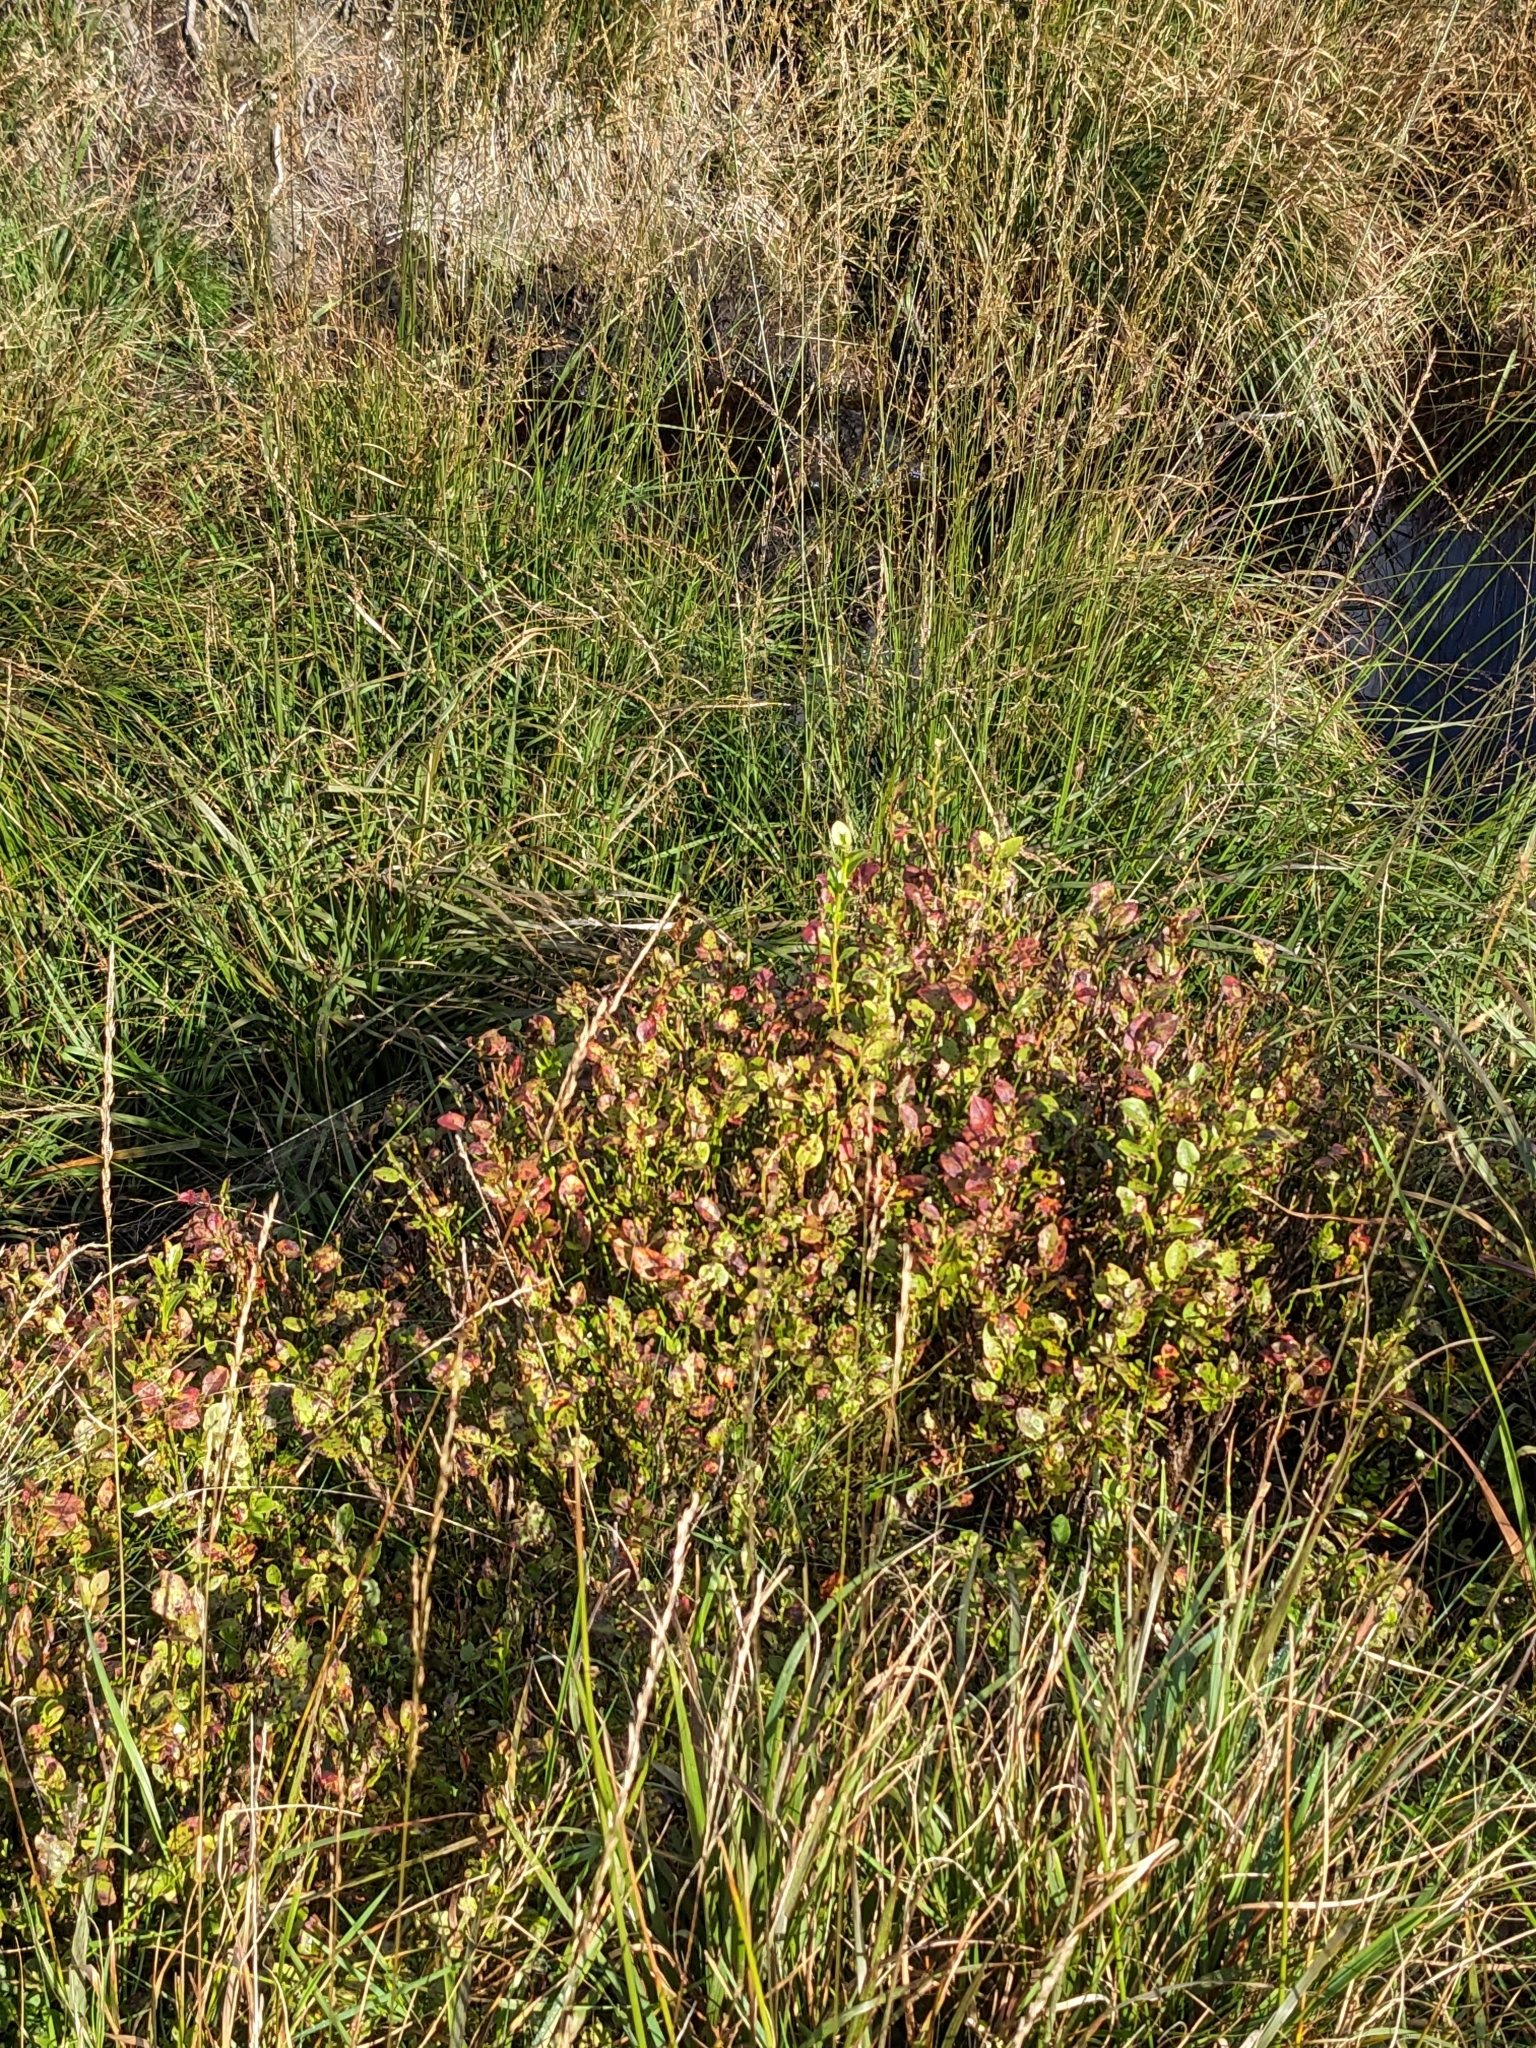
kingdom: Plantae
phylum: Tracheophyta
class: Magnoliopsida
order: Ericales
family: Ericaceae
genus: Vaccinium
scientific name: Vaccinium myrtillus
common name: Bilberry
